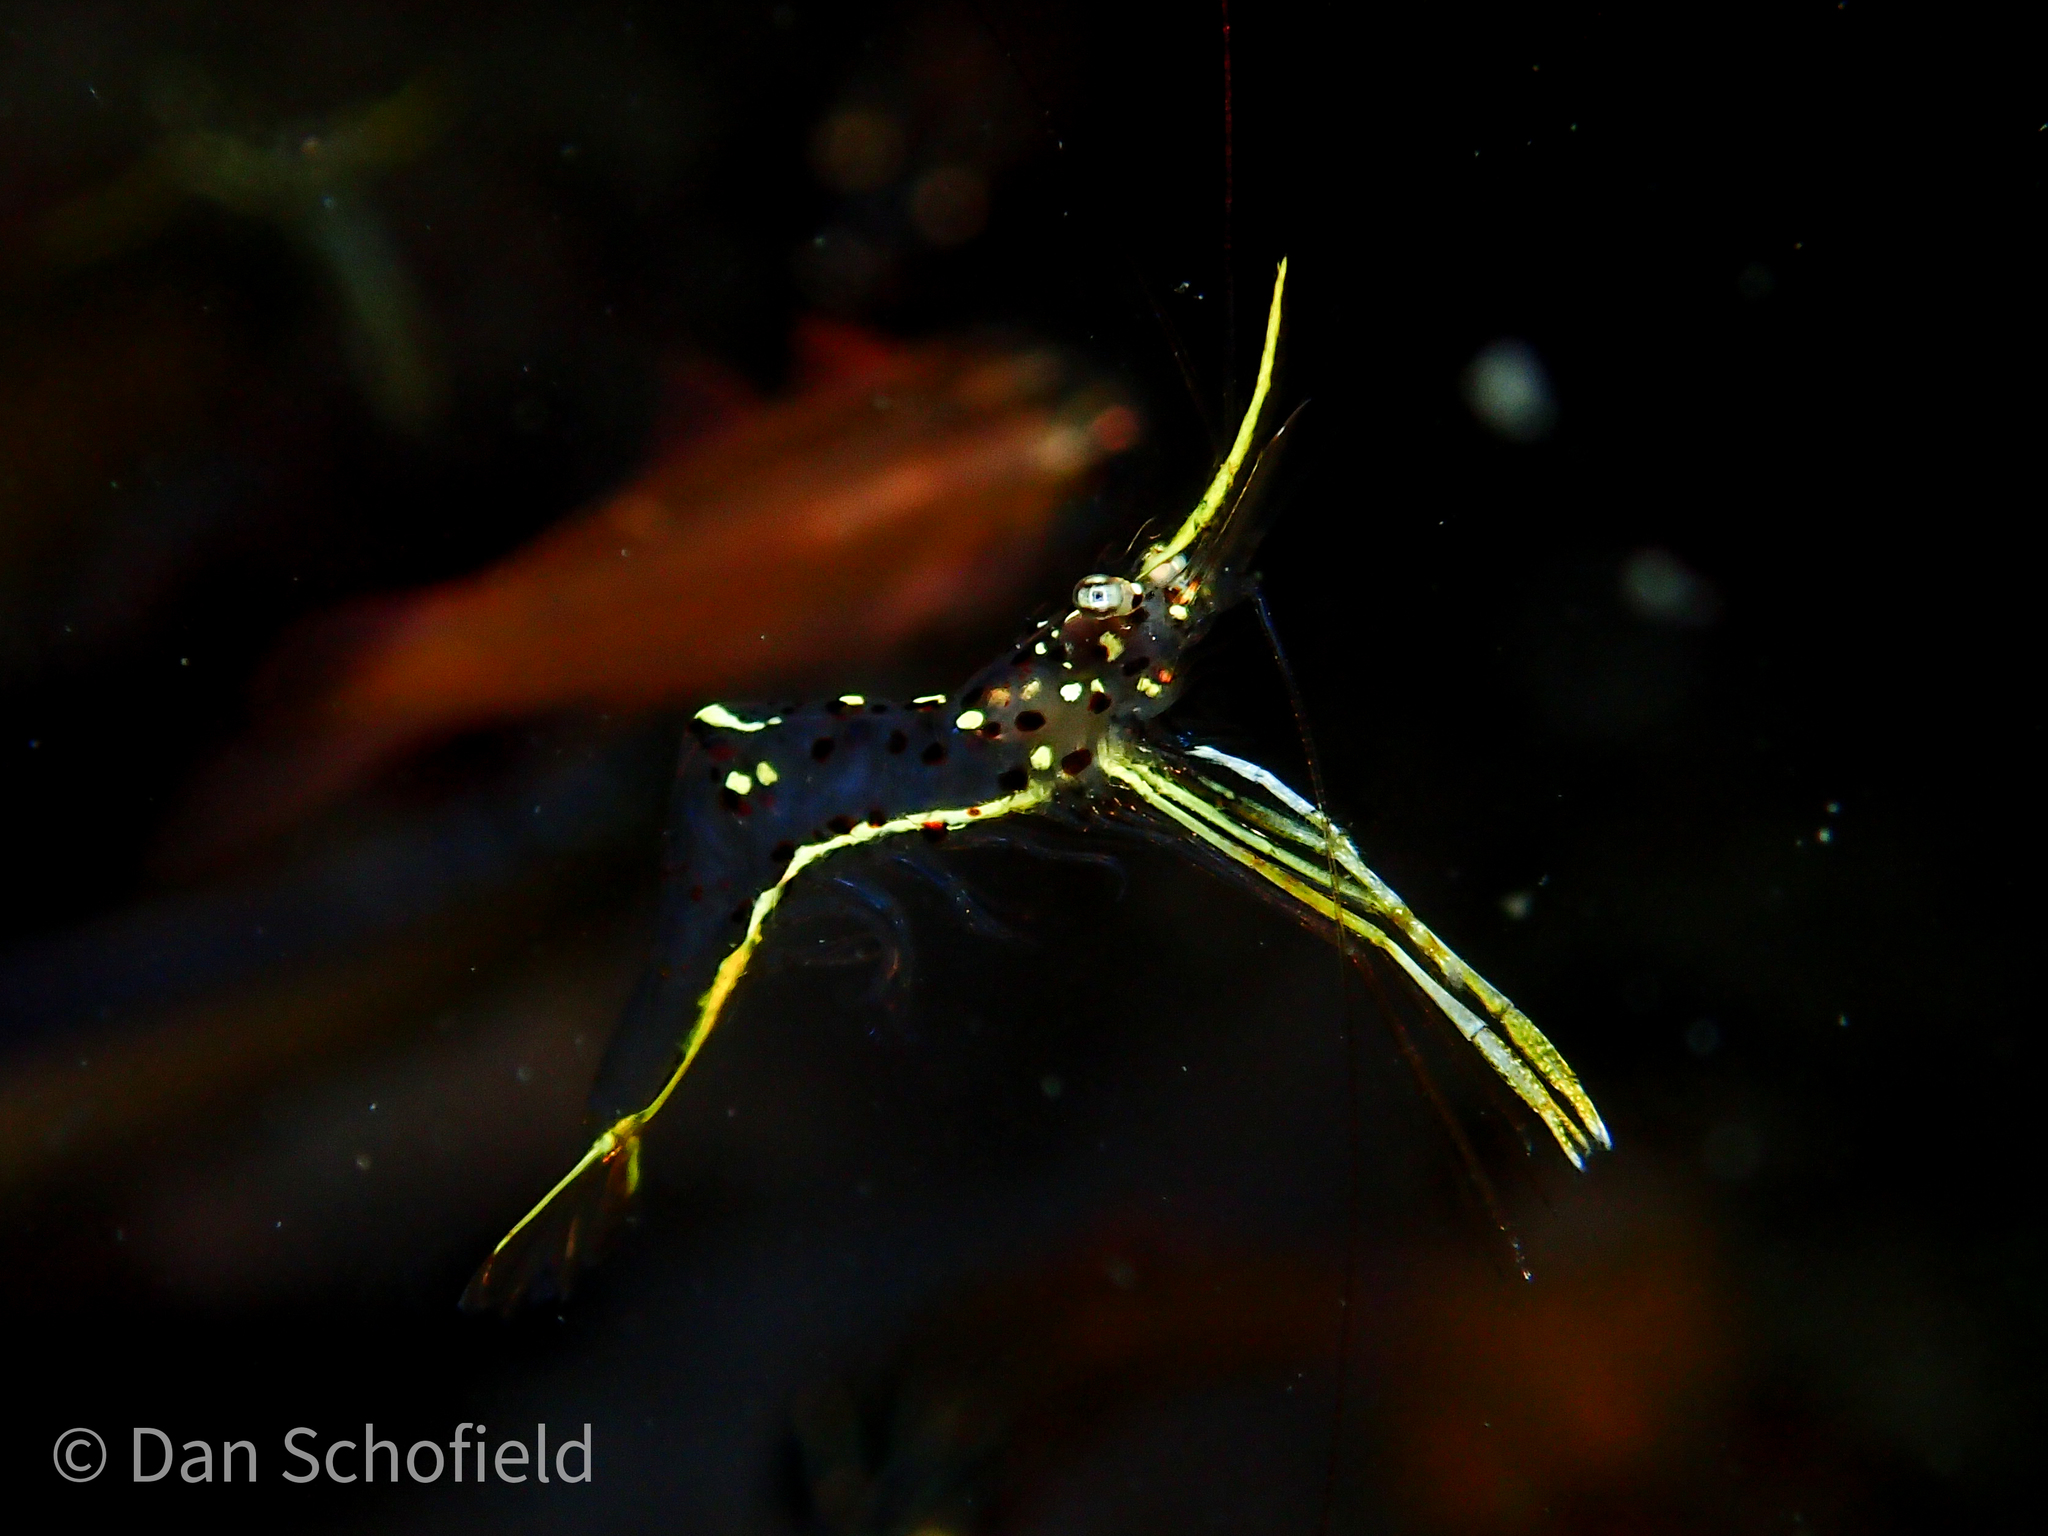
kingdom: Animalia
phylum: Arthropoda
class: Malacostraca
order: Decapoda
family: Palaemonidae
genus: Urocaridella
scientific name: Urocaridella degravei
